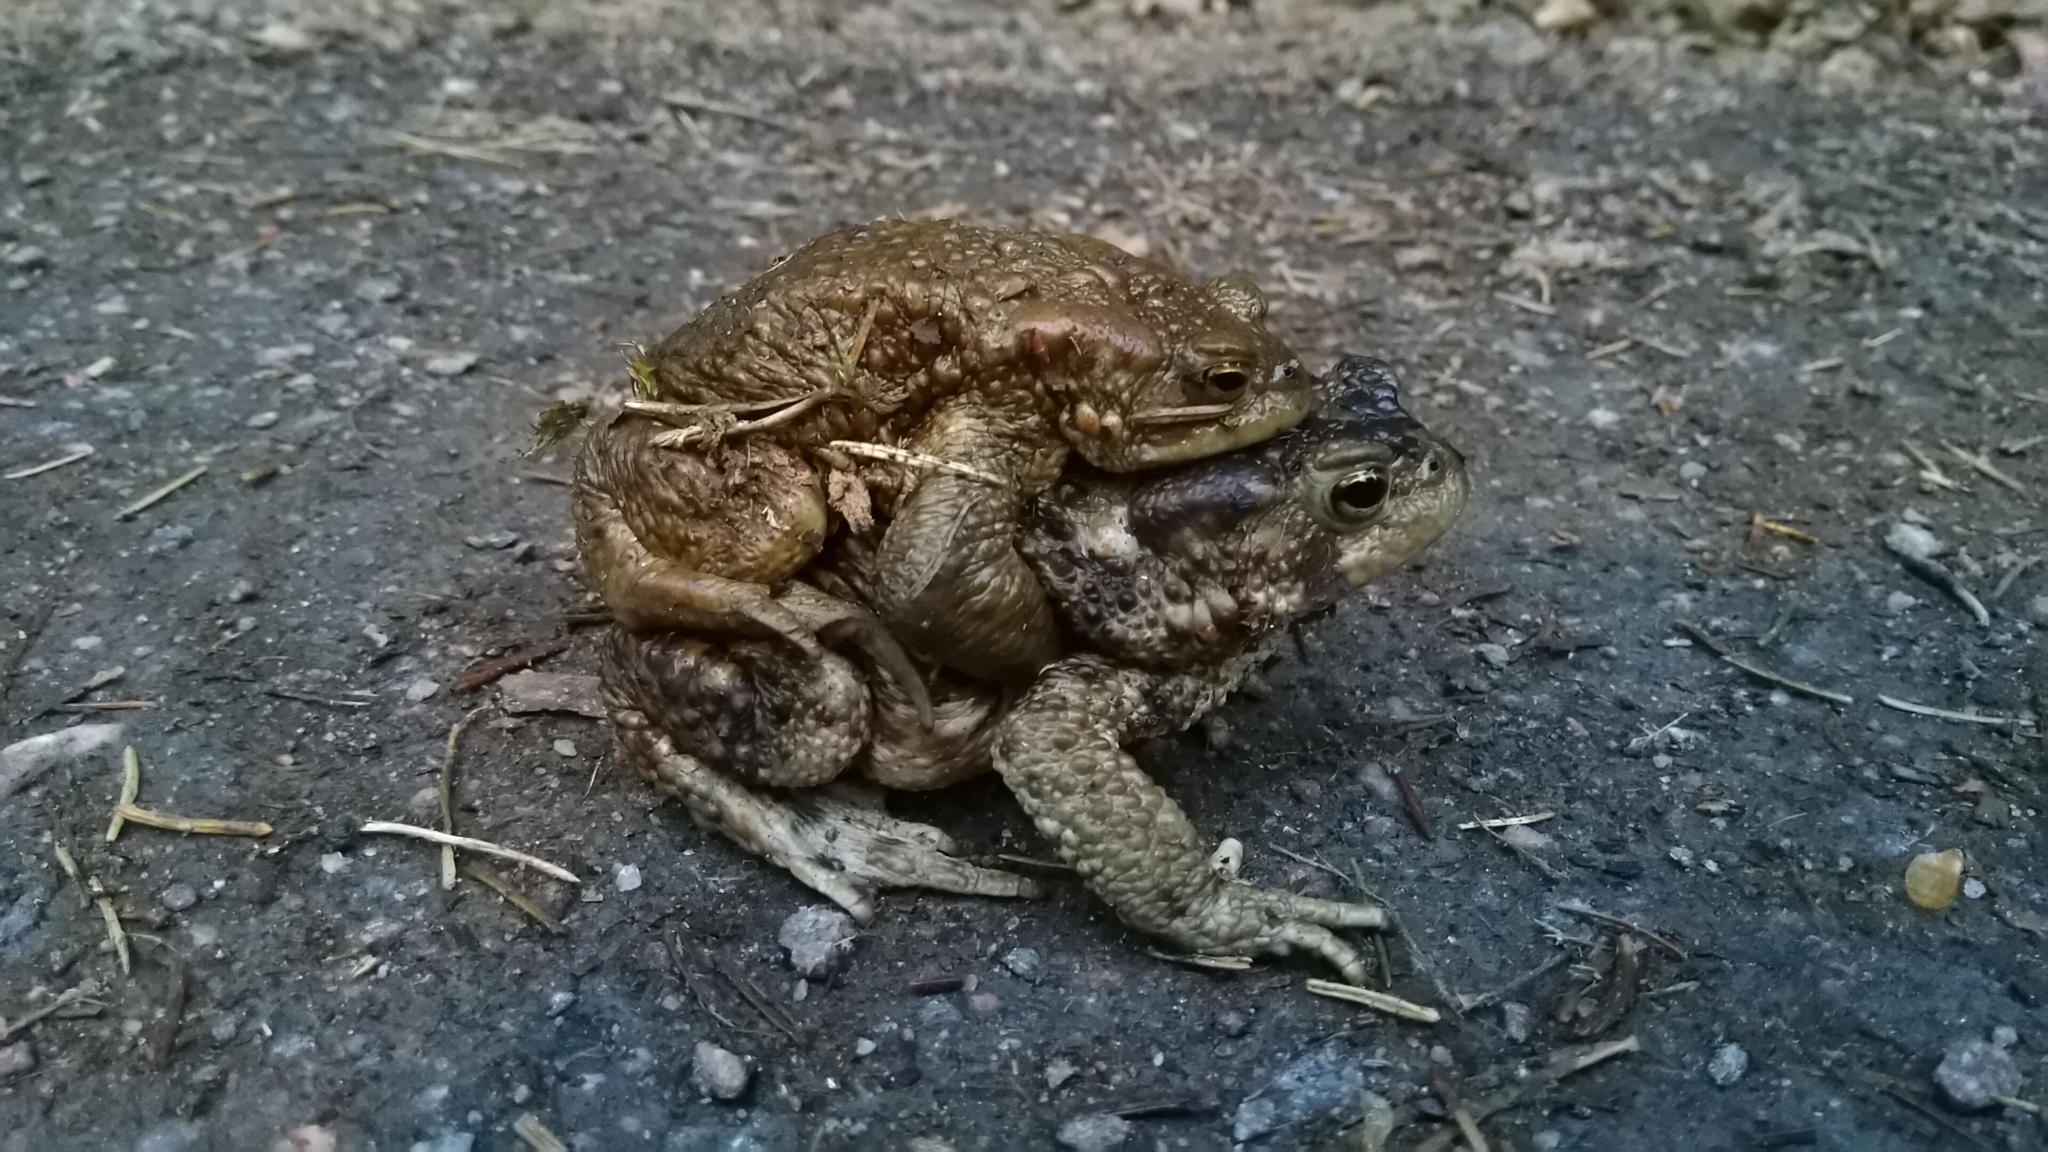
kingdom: Animalia
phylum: Chordata
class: Amphibia
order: Anura
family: Bufonidae
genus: Bufo
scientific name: Bufo bufo
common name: Common toad
